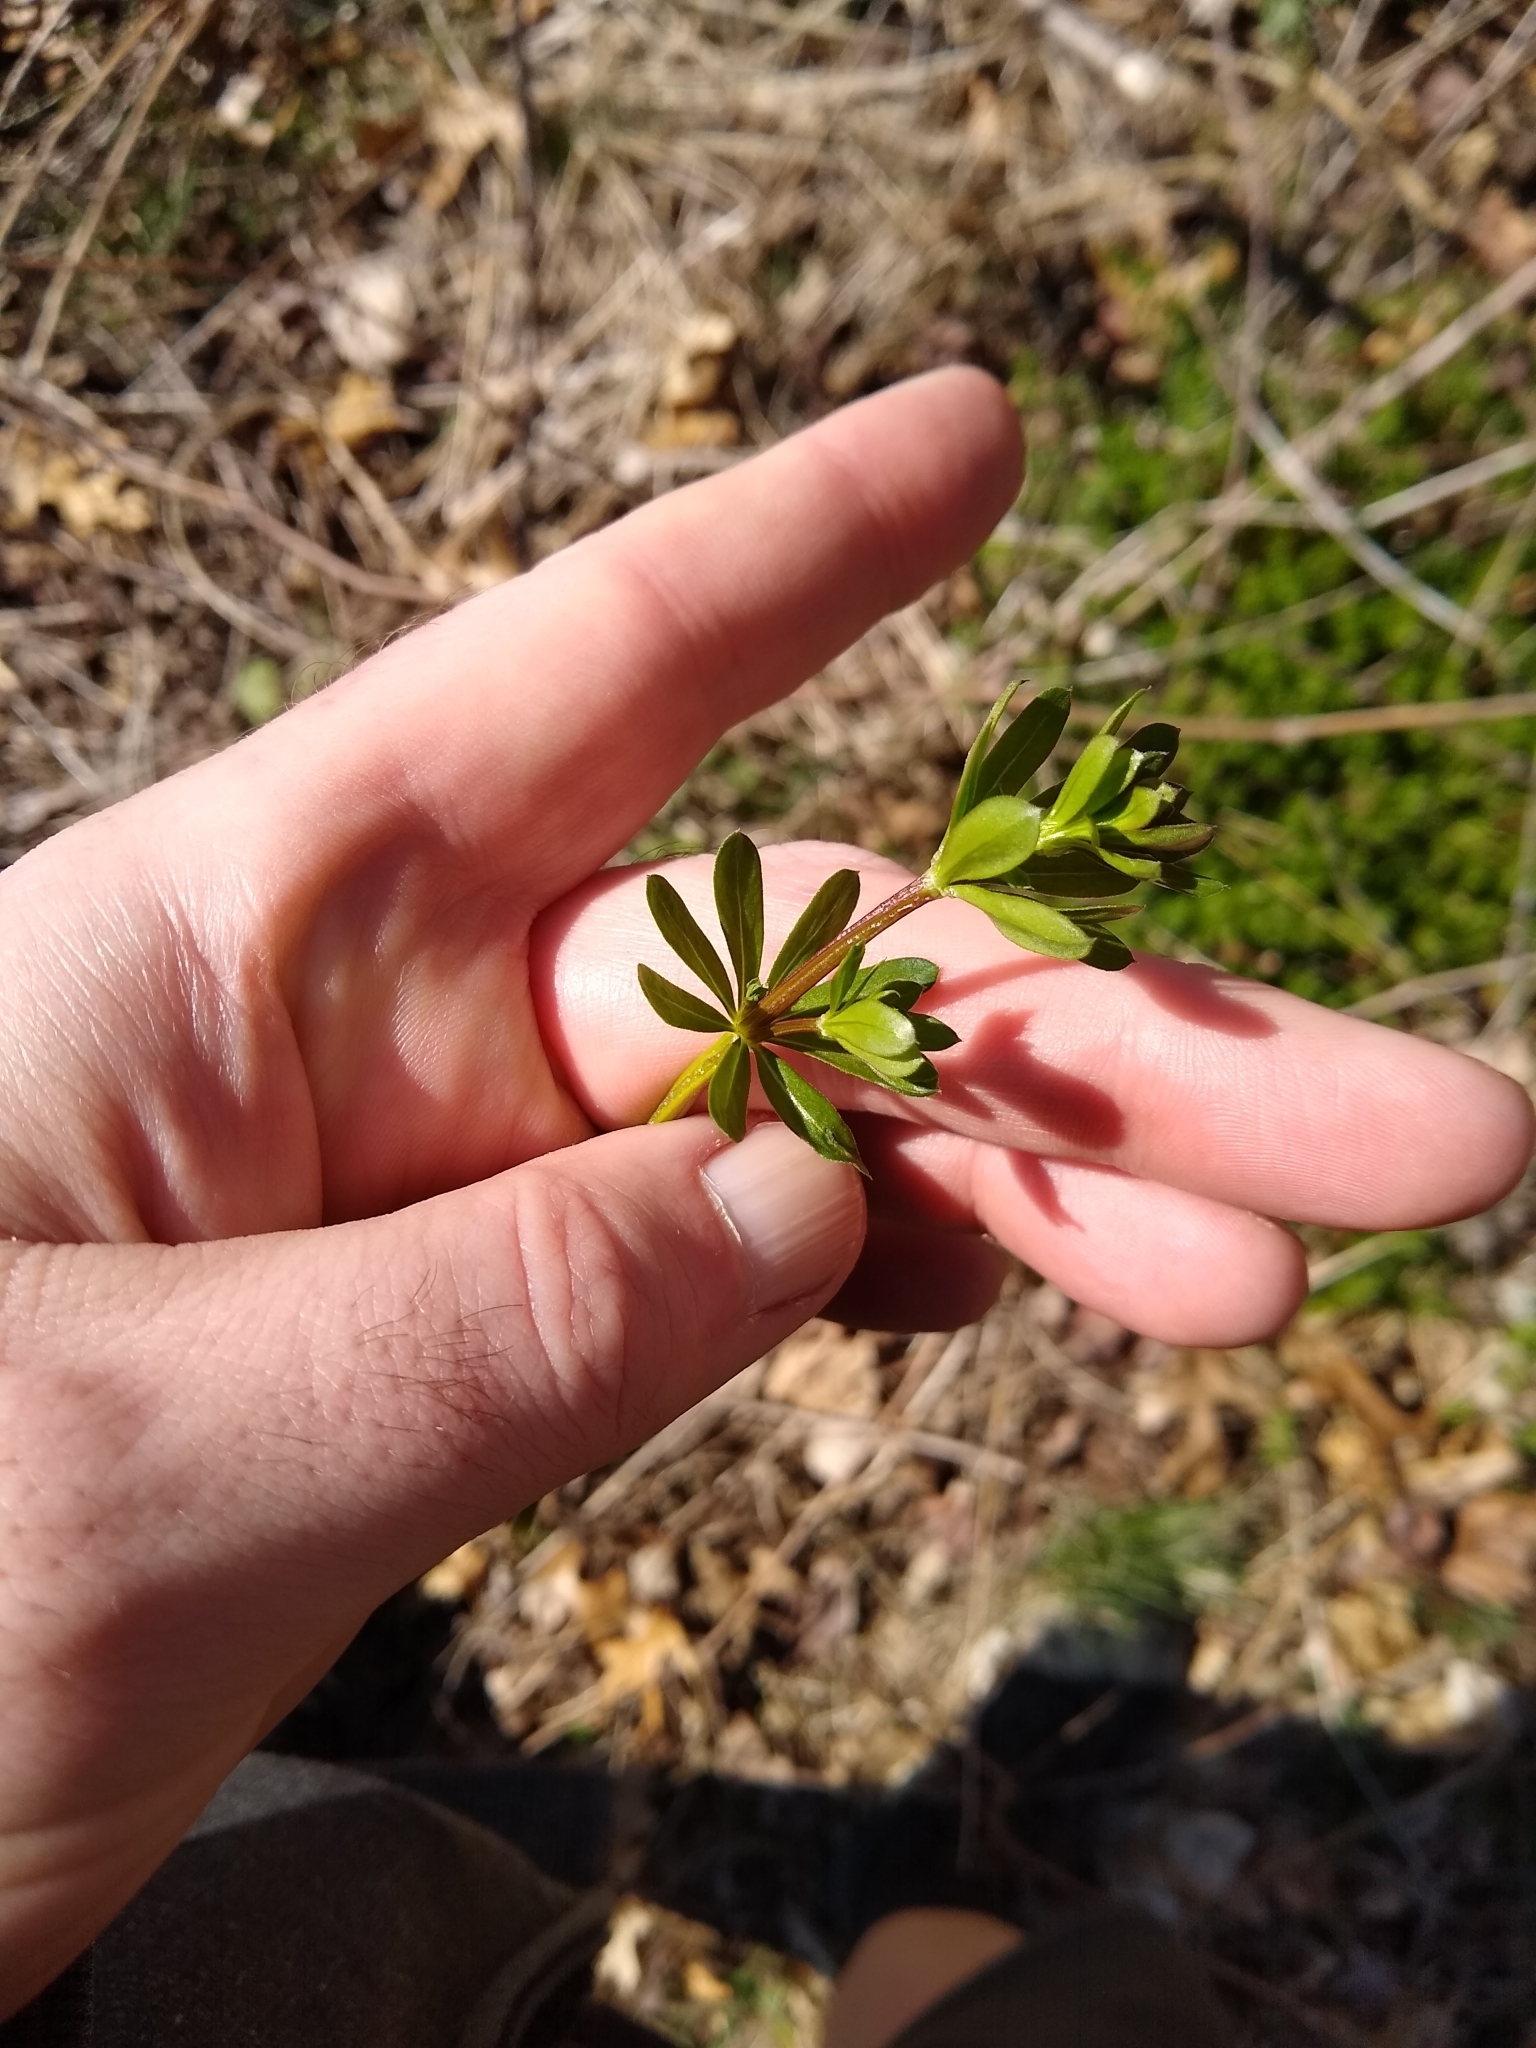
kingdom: Plantae
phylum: Tracheophyta
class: Magnoliopsida
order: Gentianales
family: Rubiaceae
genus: Galium
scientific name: Galium mollugo
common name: Hedge bedstraw
